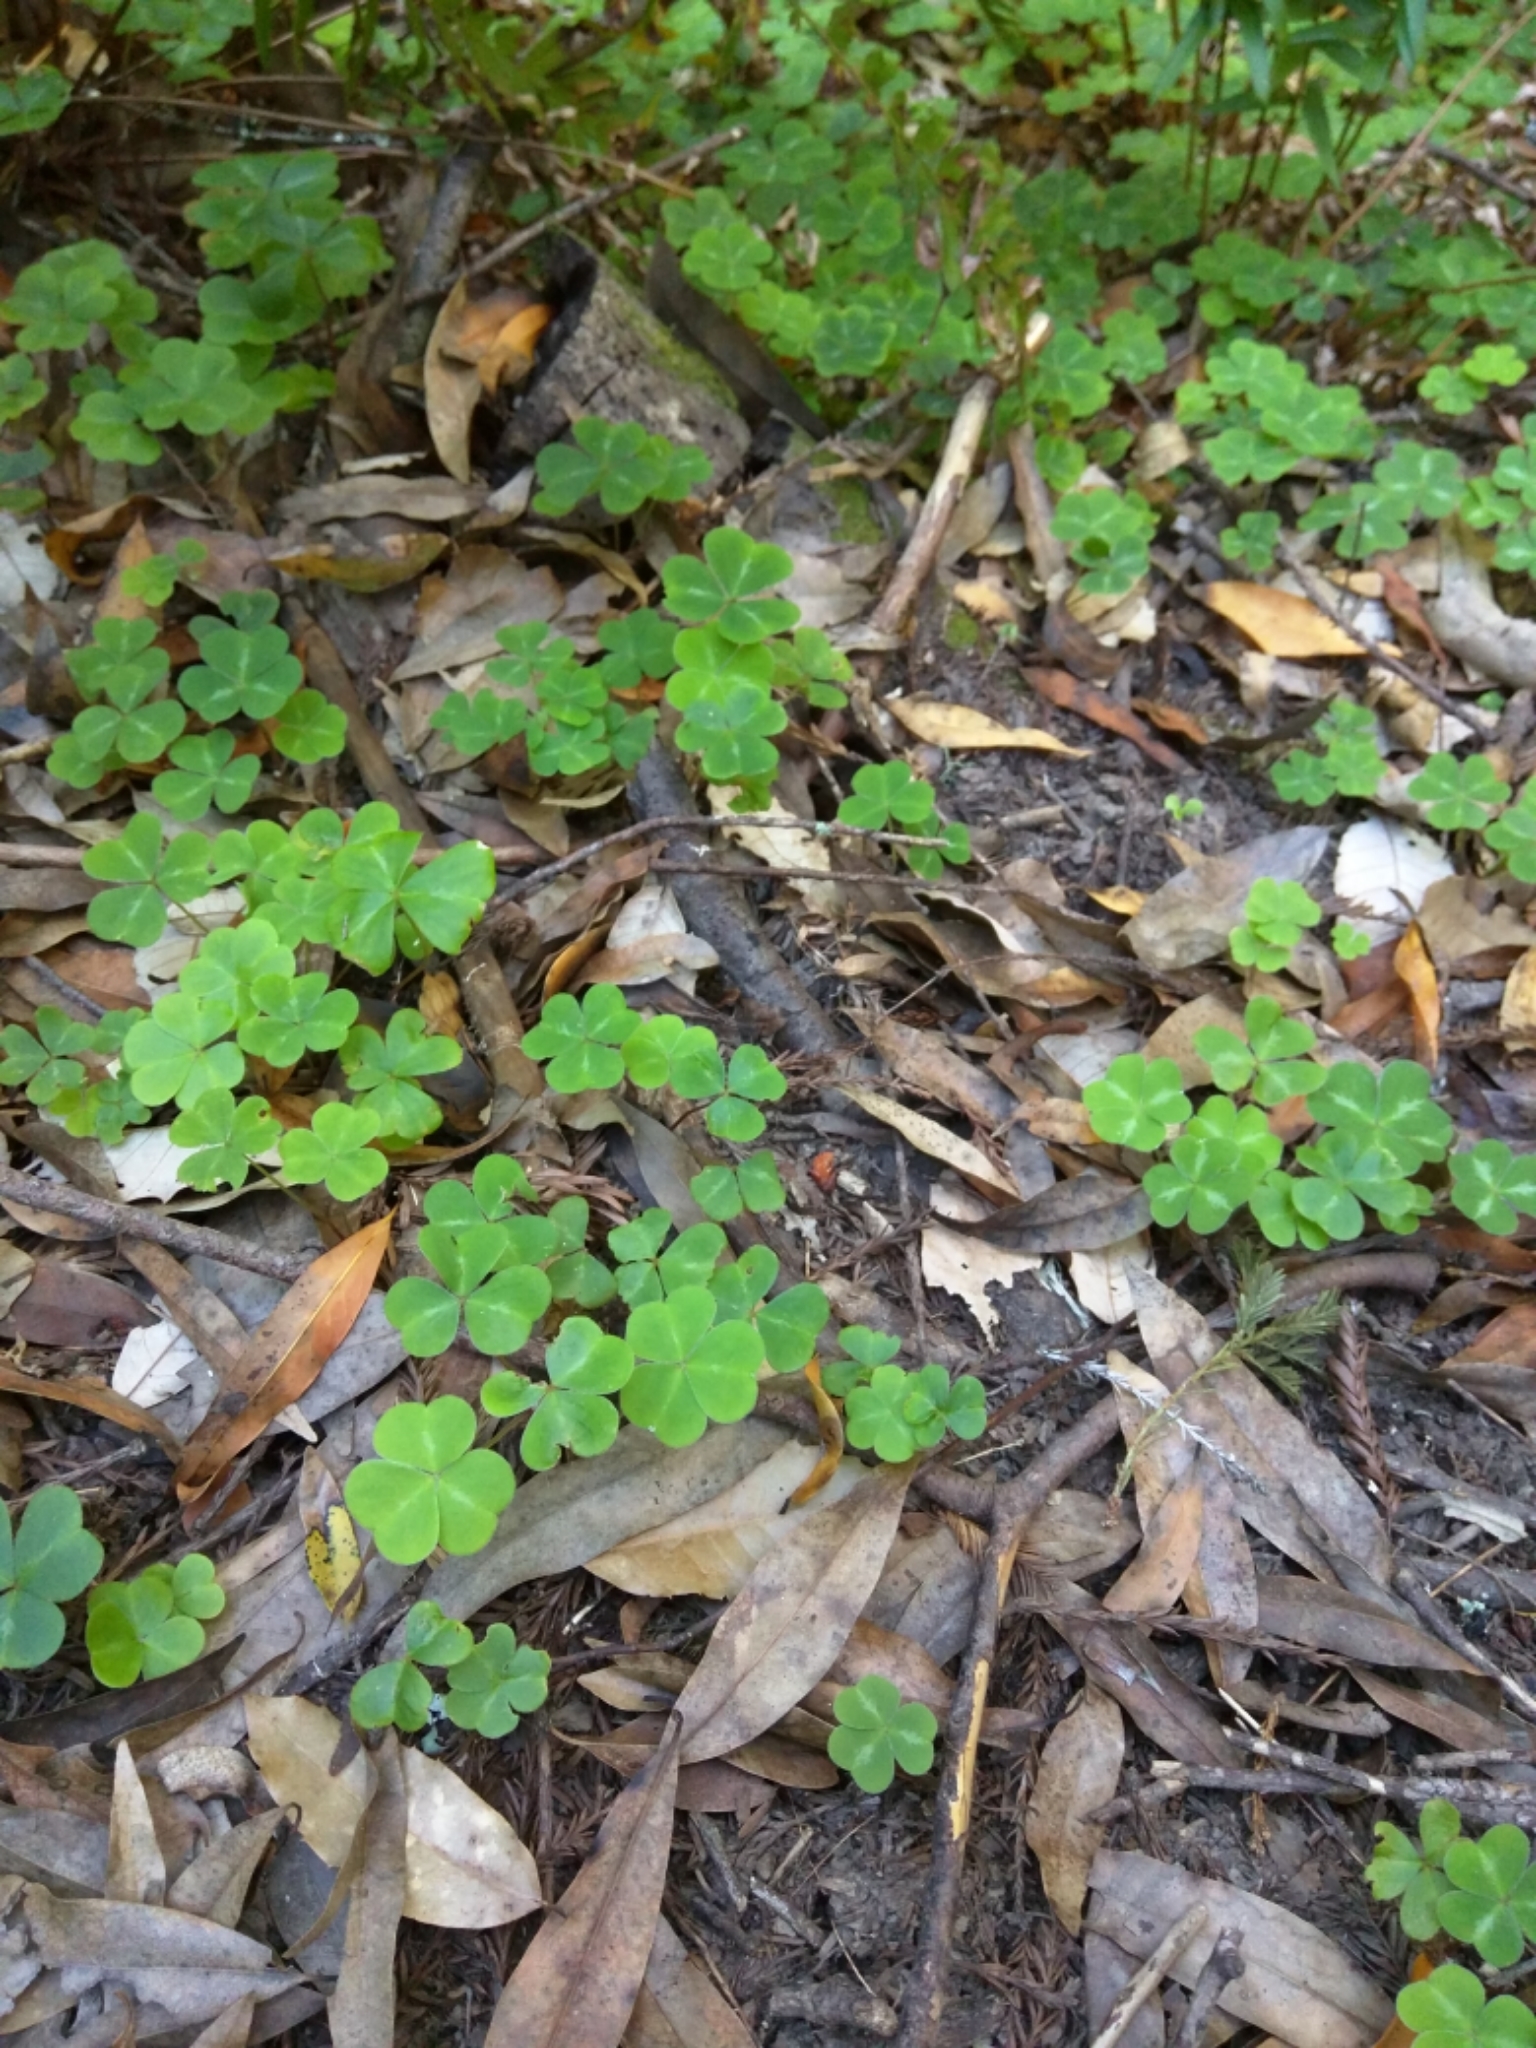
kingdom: Plantae
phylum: Tracheophyta
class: Magnoliopsida
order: Oxalidales
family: Oxalidaceae
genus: Oxalis
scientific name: Oxalis oregana
